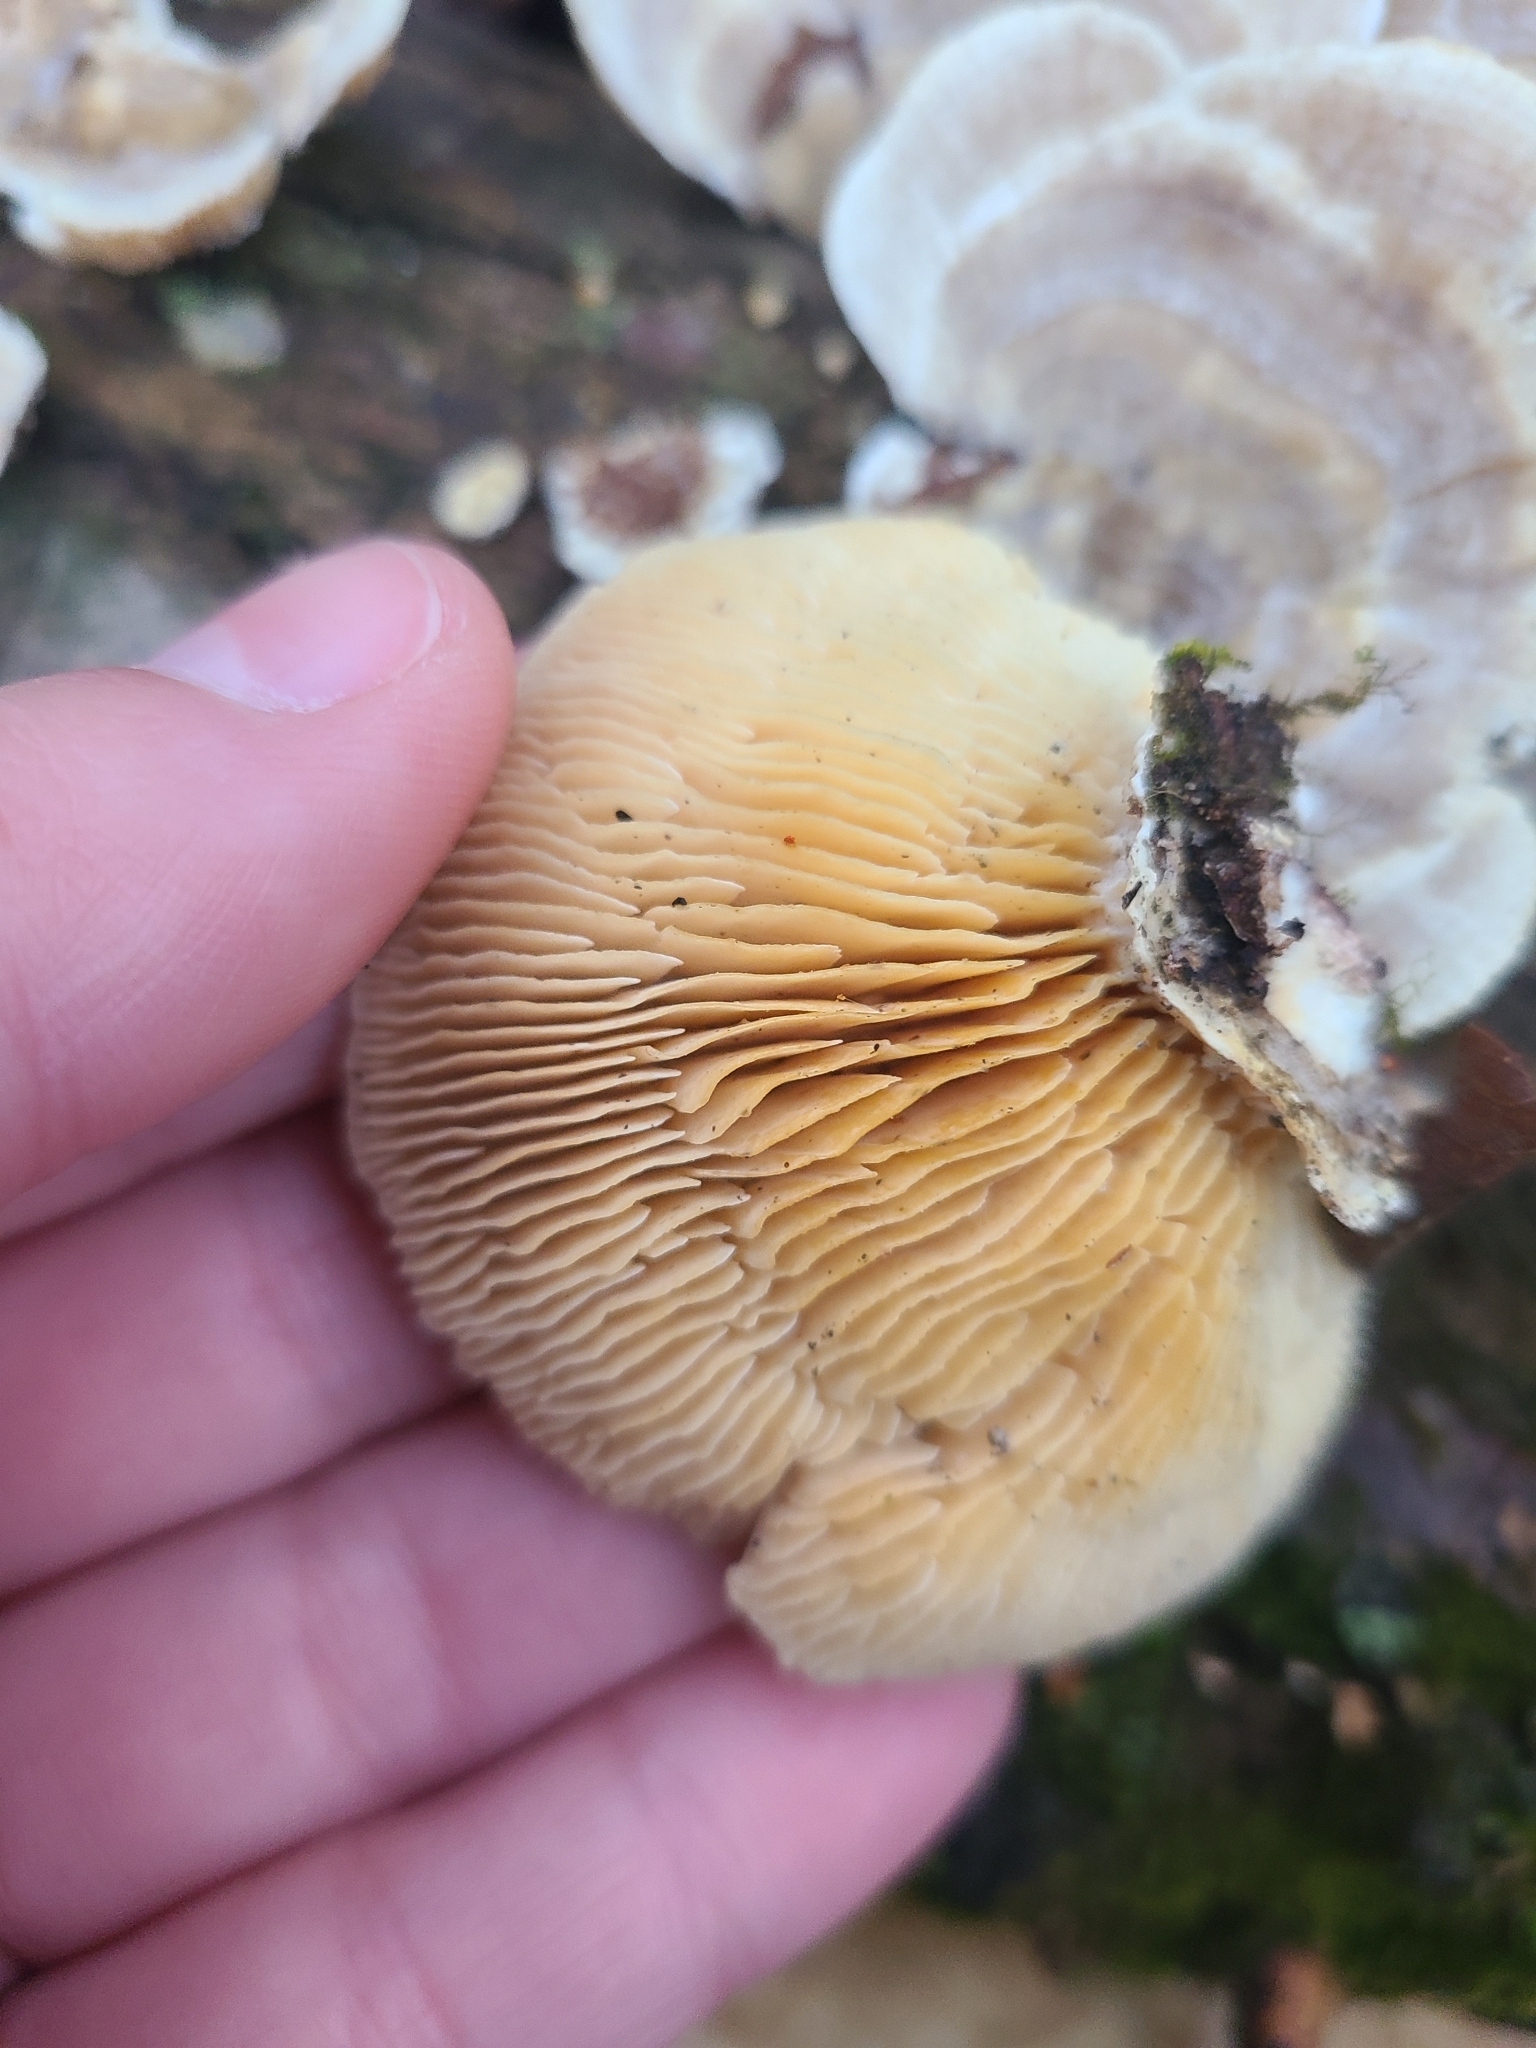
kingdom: Fungi
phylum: Basidiomycota
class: Agaricomycetes
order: Polyporales
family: Polyporaceae
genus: Lenzites
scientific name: Lenzites betulinus
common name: Birch mazegill
